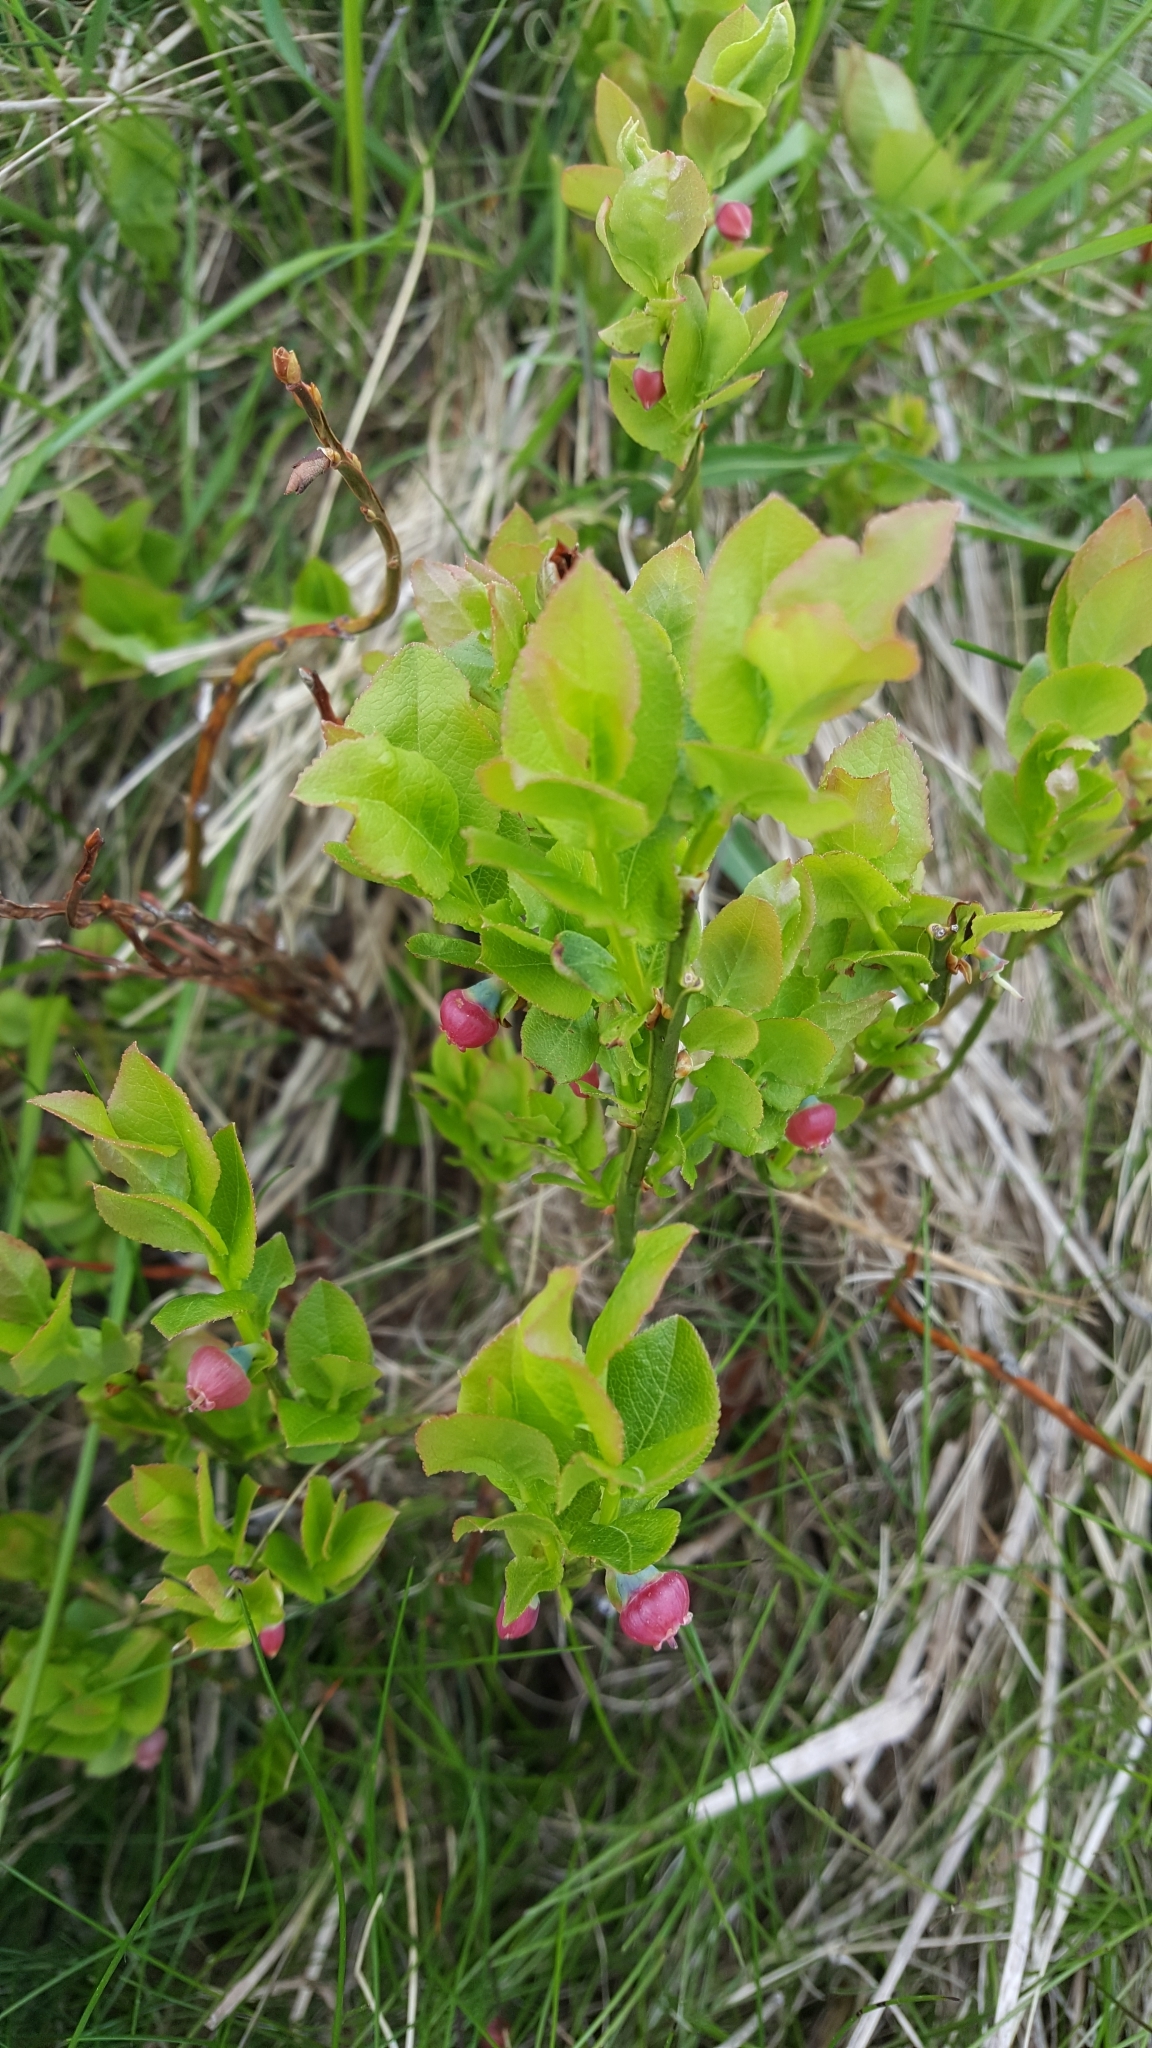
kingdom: Plantae
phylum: Tracheophyta
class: Magnoliopsida
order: Ericales
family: Ericaceae
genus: Vaccinium
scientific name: Vaccinium myrtillus
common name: Bilberry
